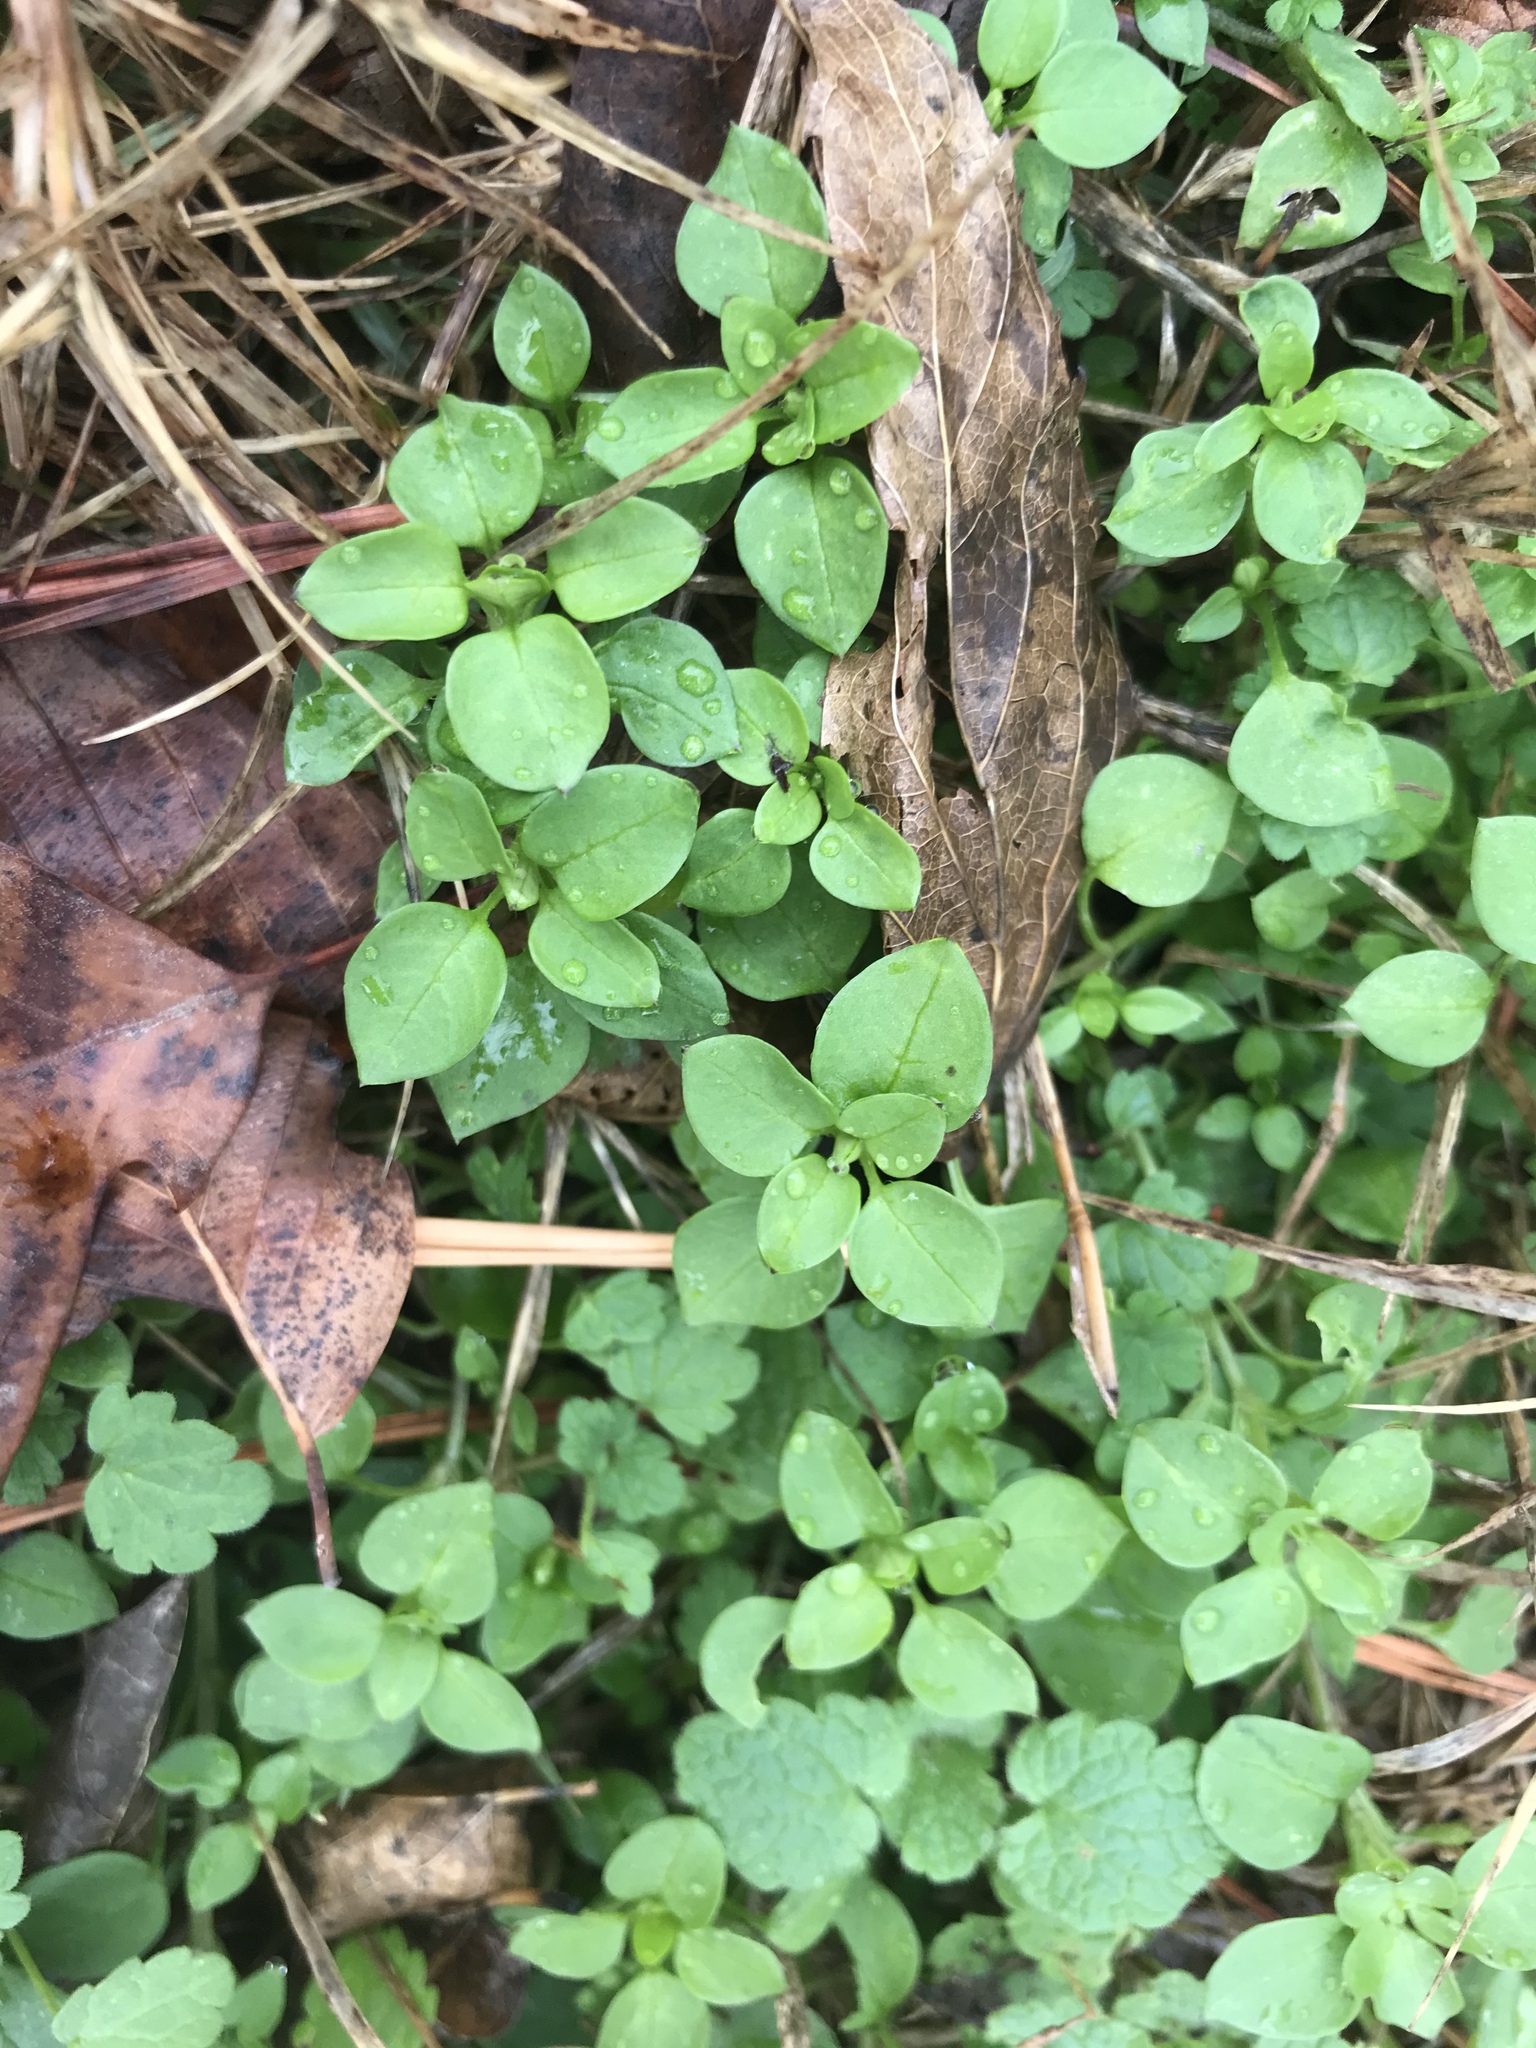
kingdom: Plantae
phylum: Tracheophyta
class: Magnoliopsida
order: Caryophyllales
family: Caryophyllaceae
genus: Stellaria
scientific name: Stellaria media
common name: Common chickweed
